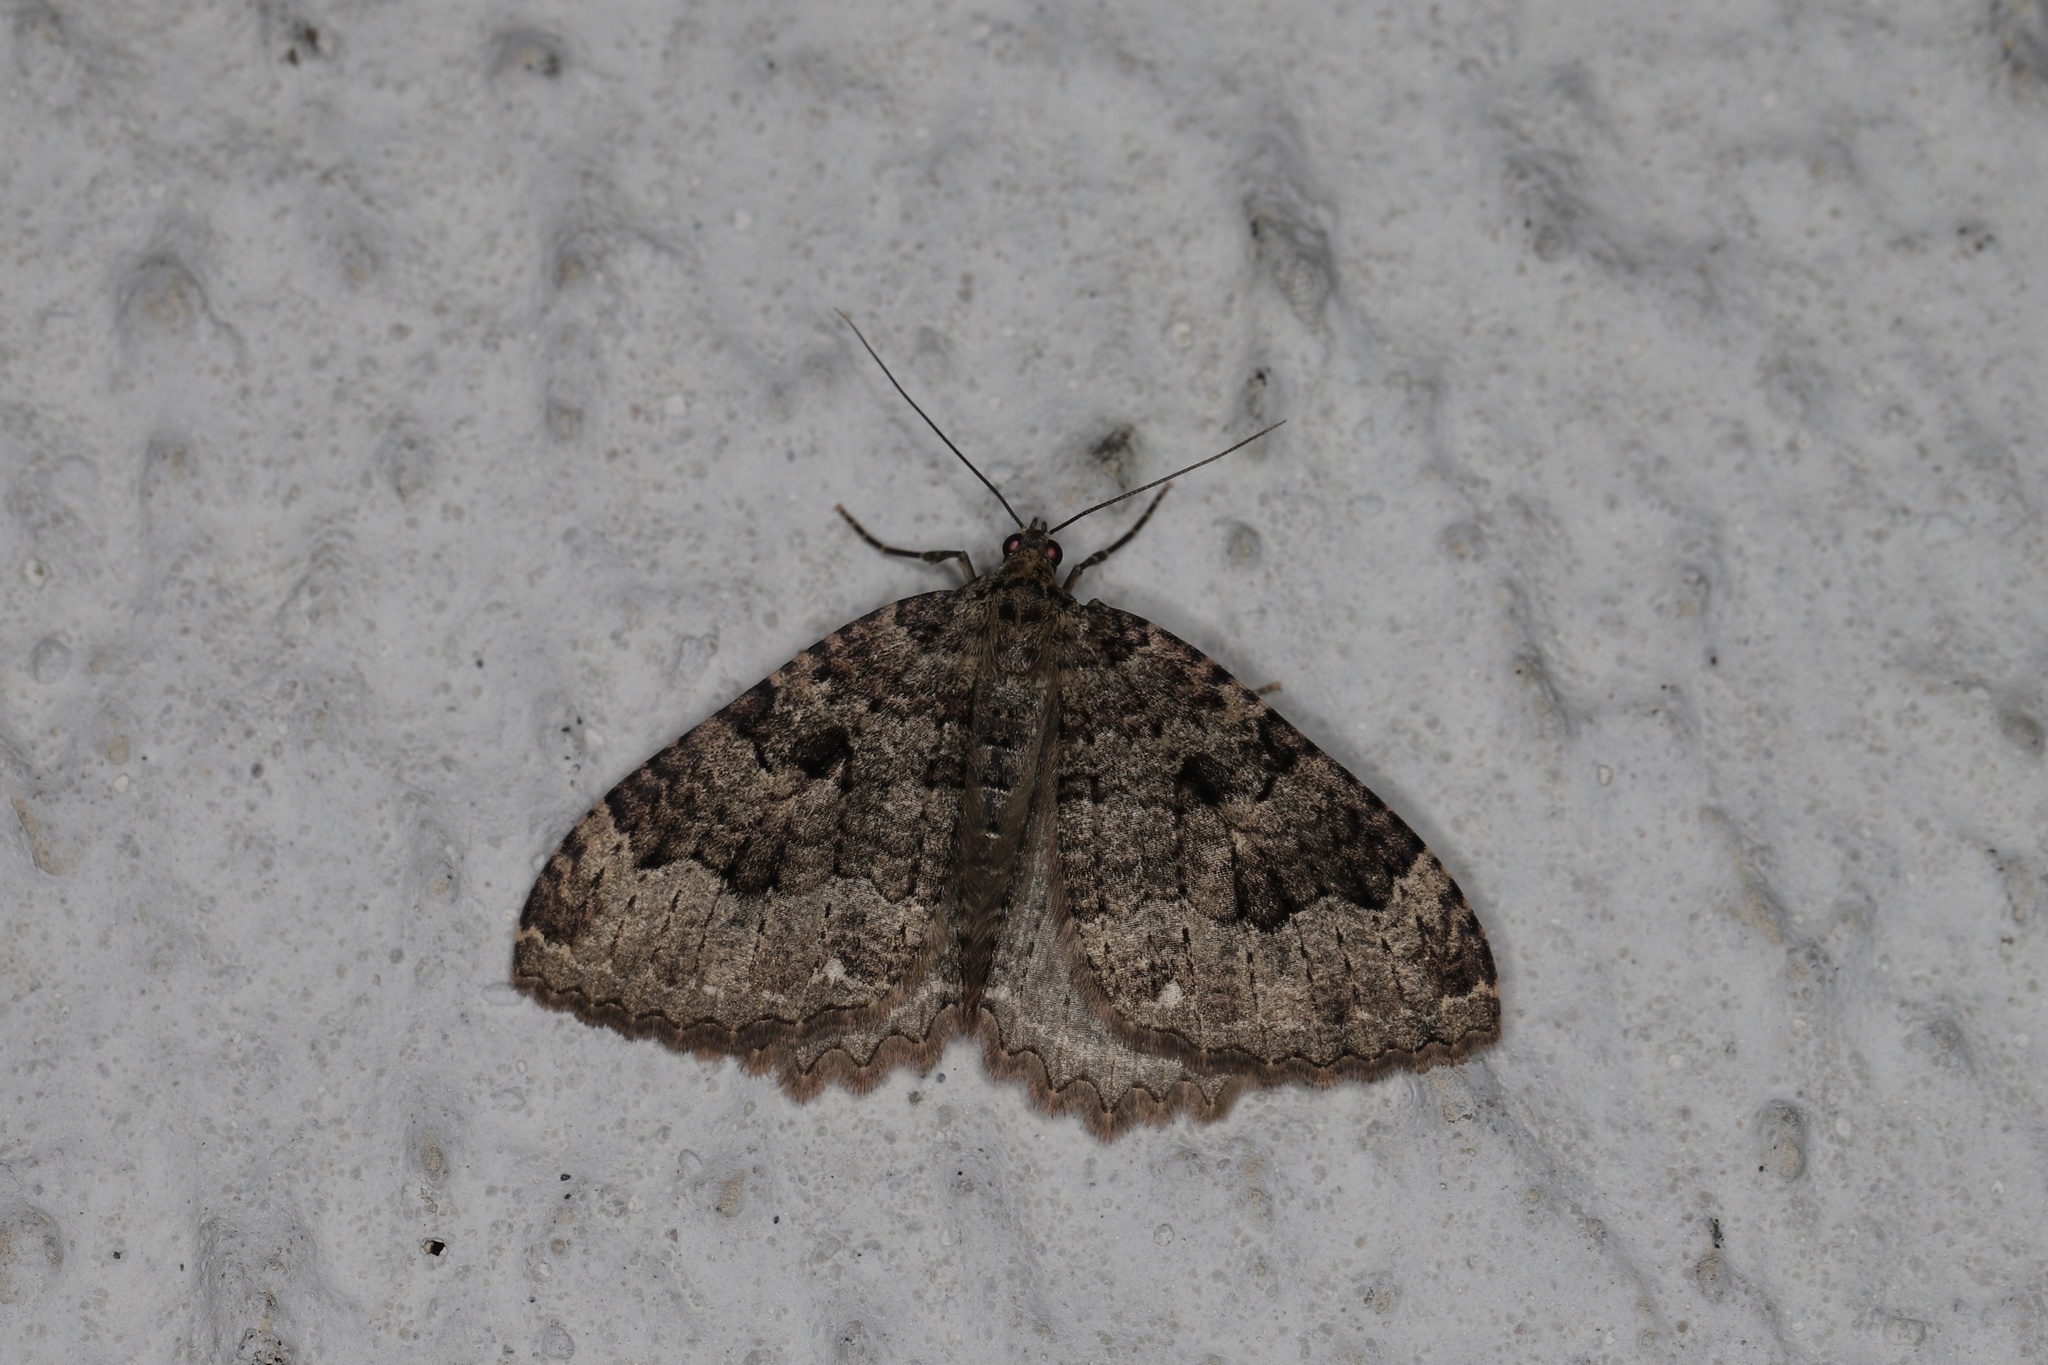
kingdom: Animalia
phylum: Arthropoda
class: Insecta
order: Lepidoptera
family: Geometridae
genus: Triphosa
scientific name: Triphosa dubitata
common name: Tissue
